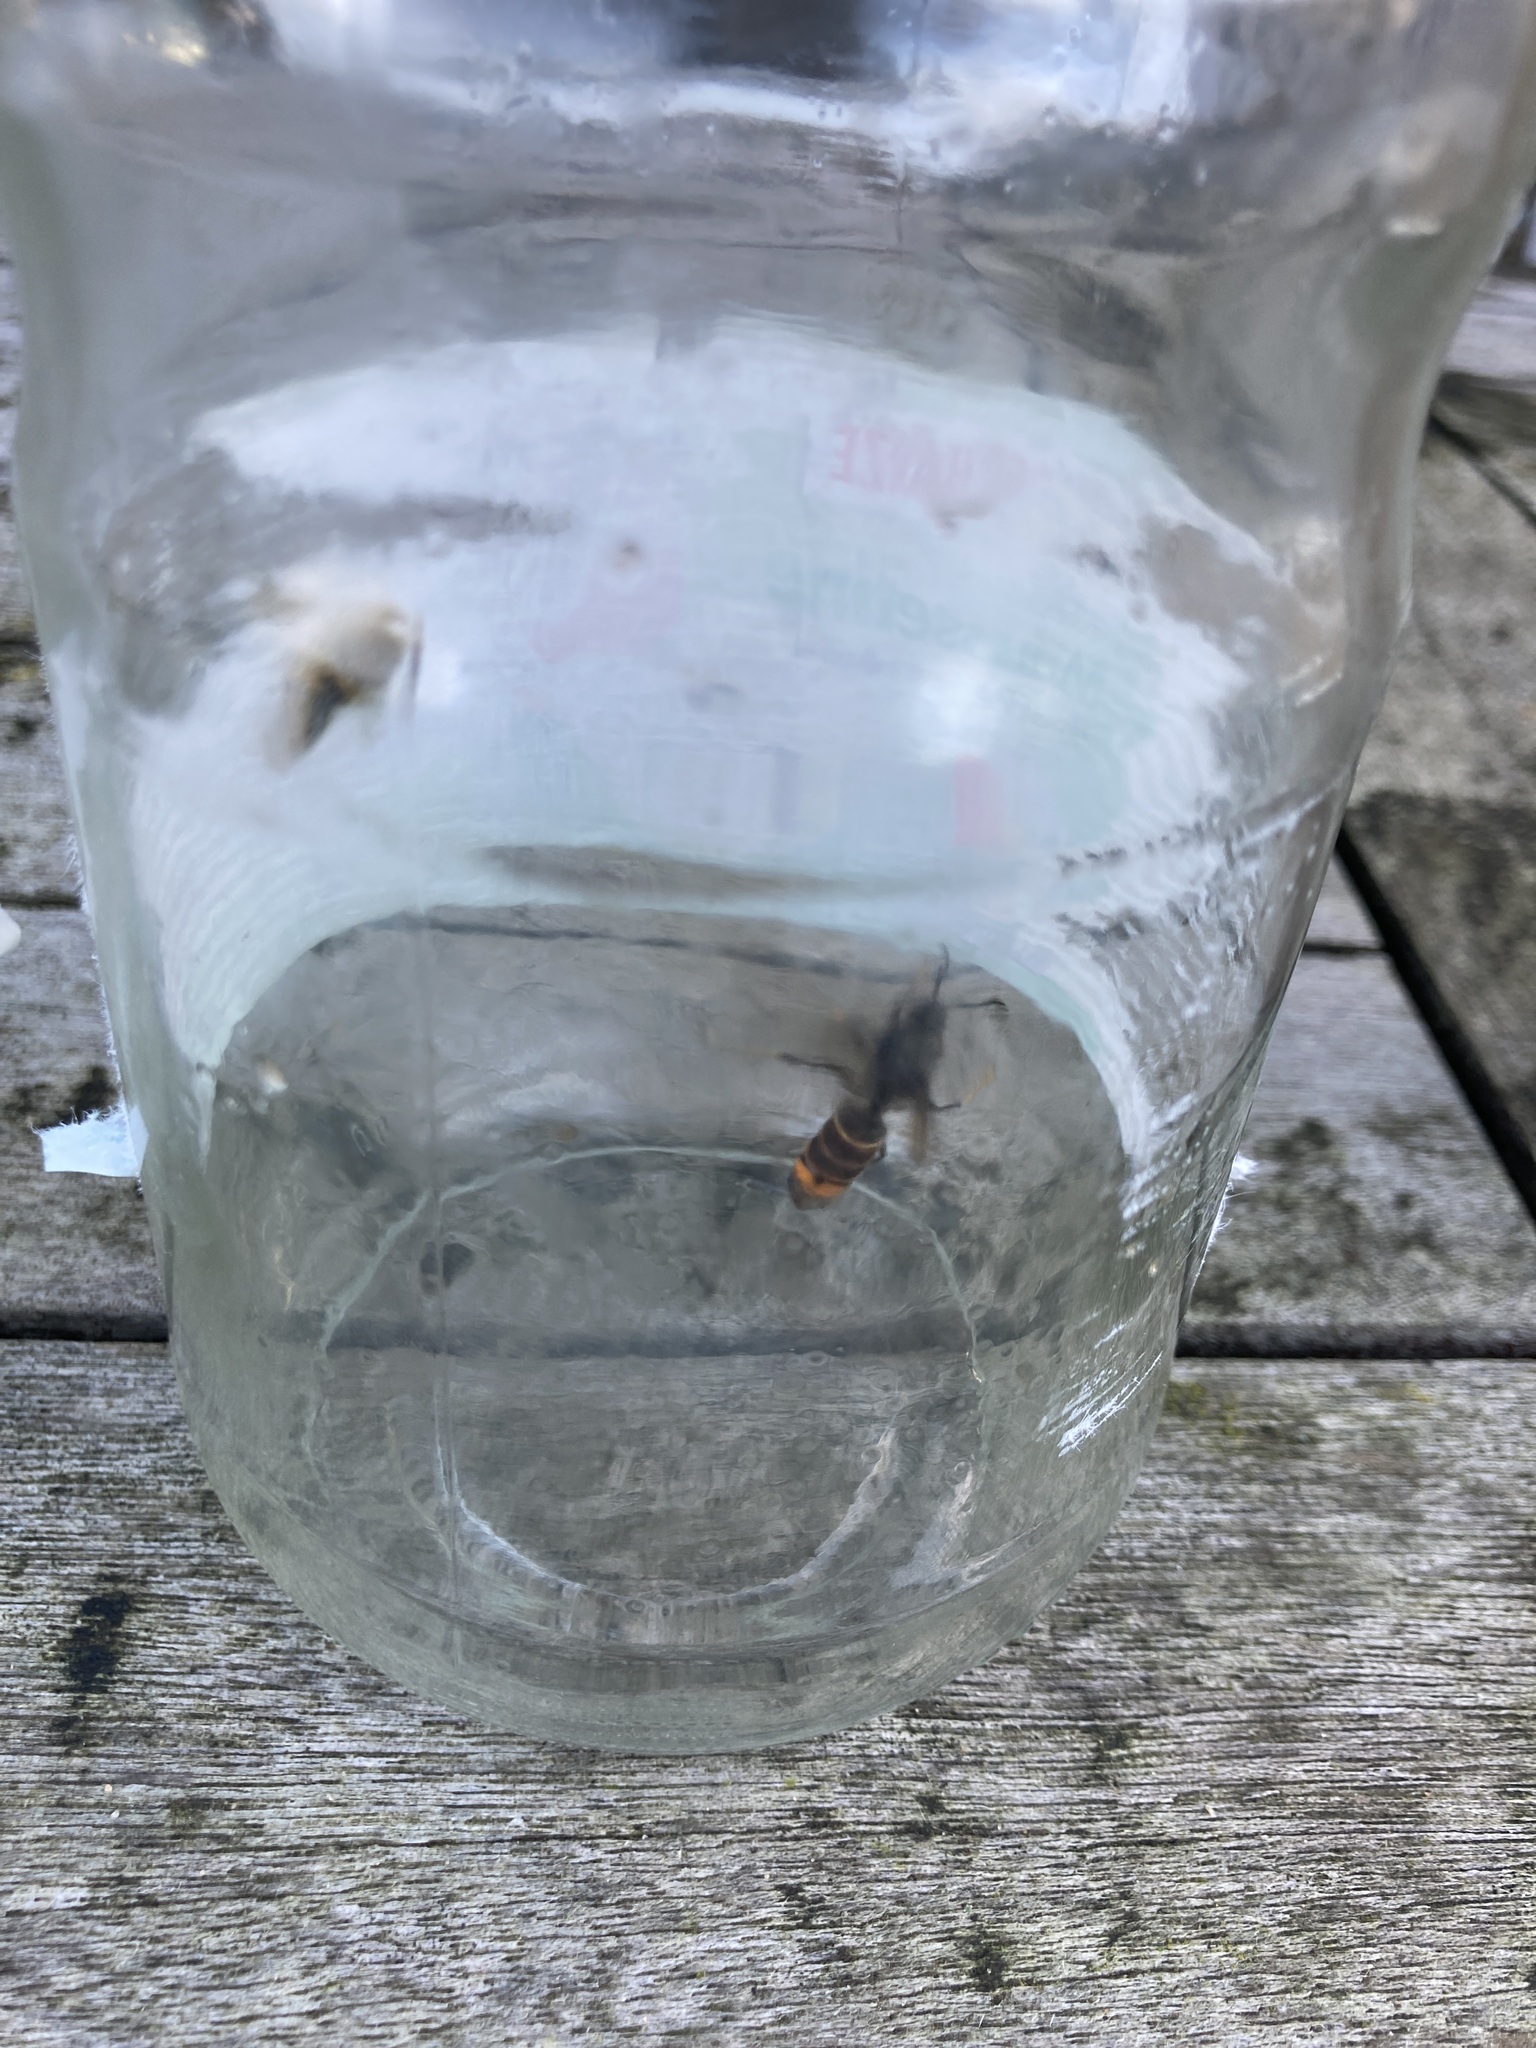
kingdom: Animalia
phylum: Arthropoda
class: Insecta
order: Hymenoptera
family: Vespidae
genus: Vespa
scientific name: Vespa velutina
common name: Asian hornet
